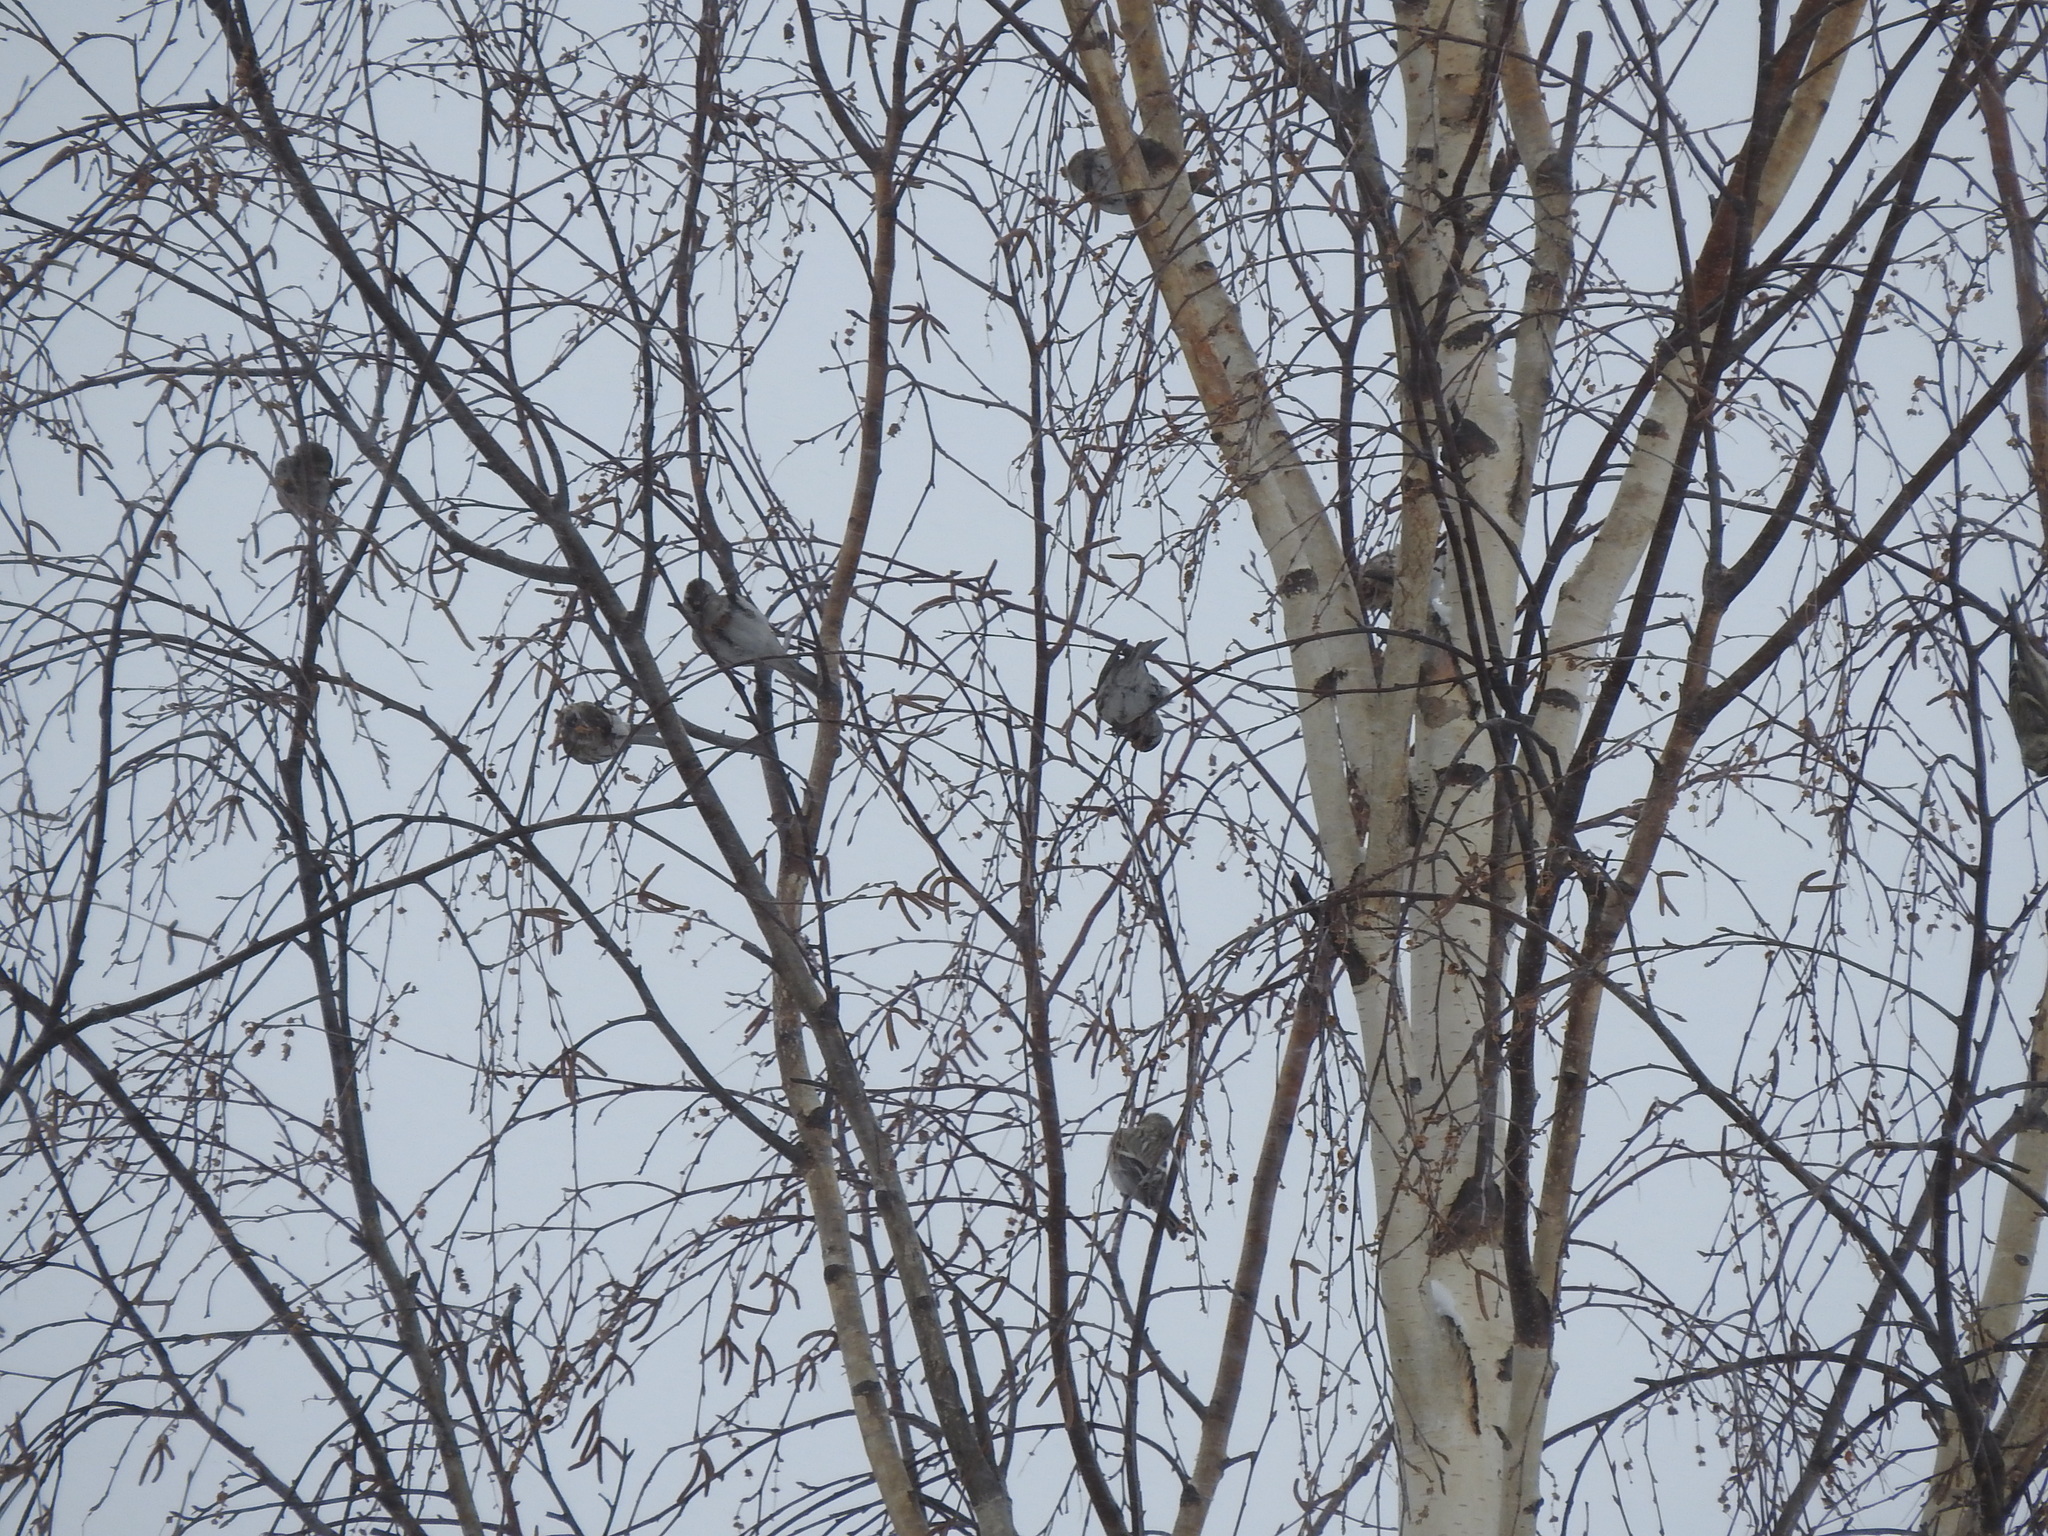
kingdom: Animalia
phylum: Chordata
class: Aves
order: Passeriformes
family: Fringillidae
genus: Acanthis
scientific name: Acanthis flammea
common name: Common redpoll
